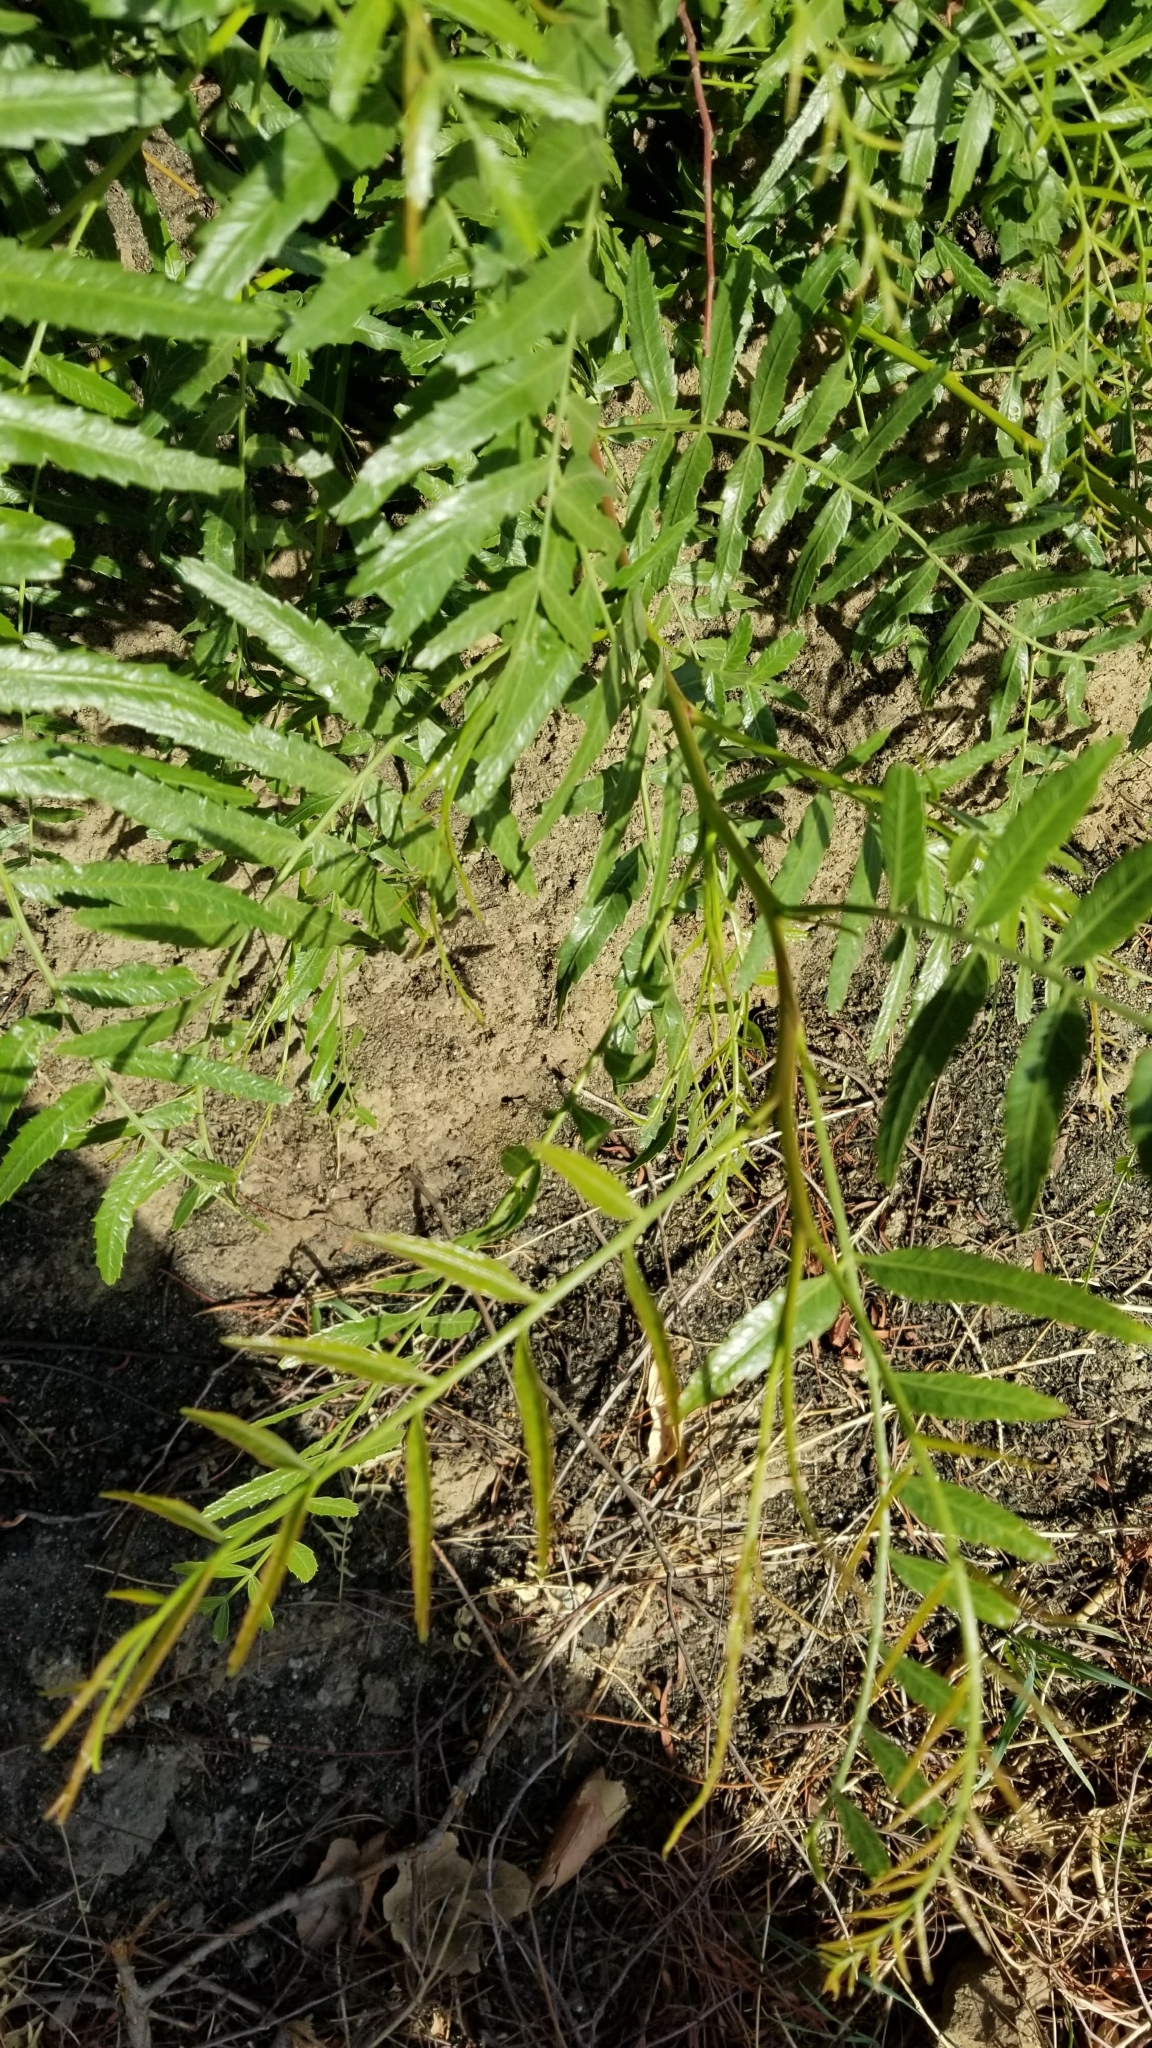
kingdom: Plantae
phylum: Tracheophyta
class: Magnoliopsida
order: Sapindales
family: Anacardiaceae
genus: Schinus
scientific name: Schinus molle
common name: Peruvian peppertree
